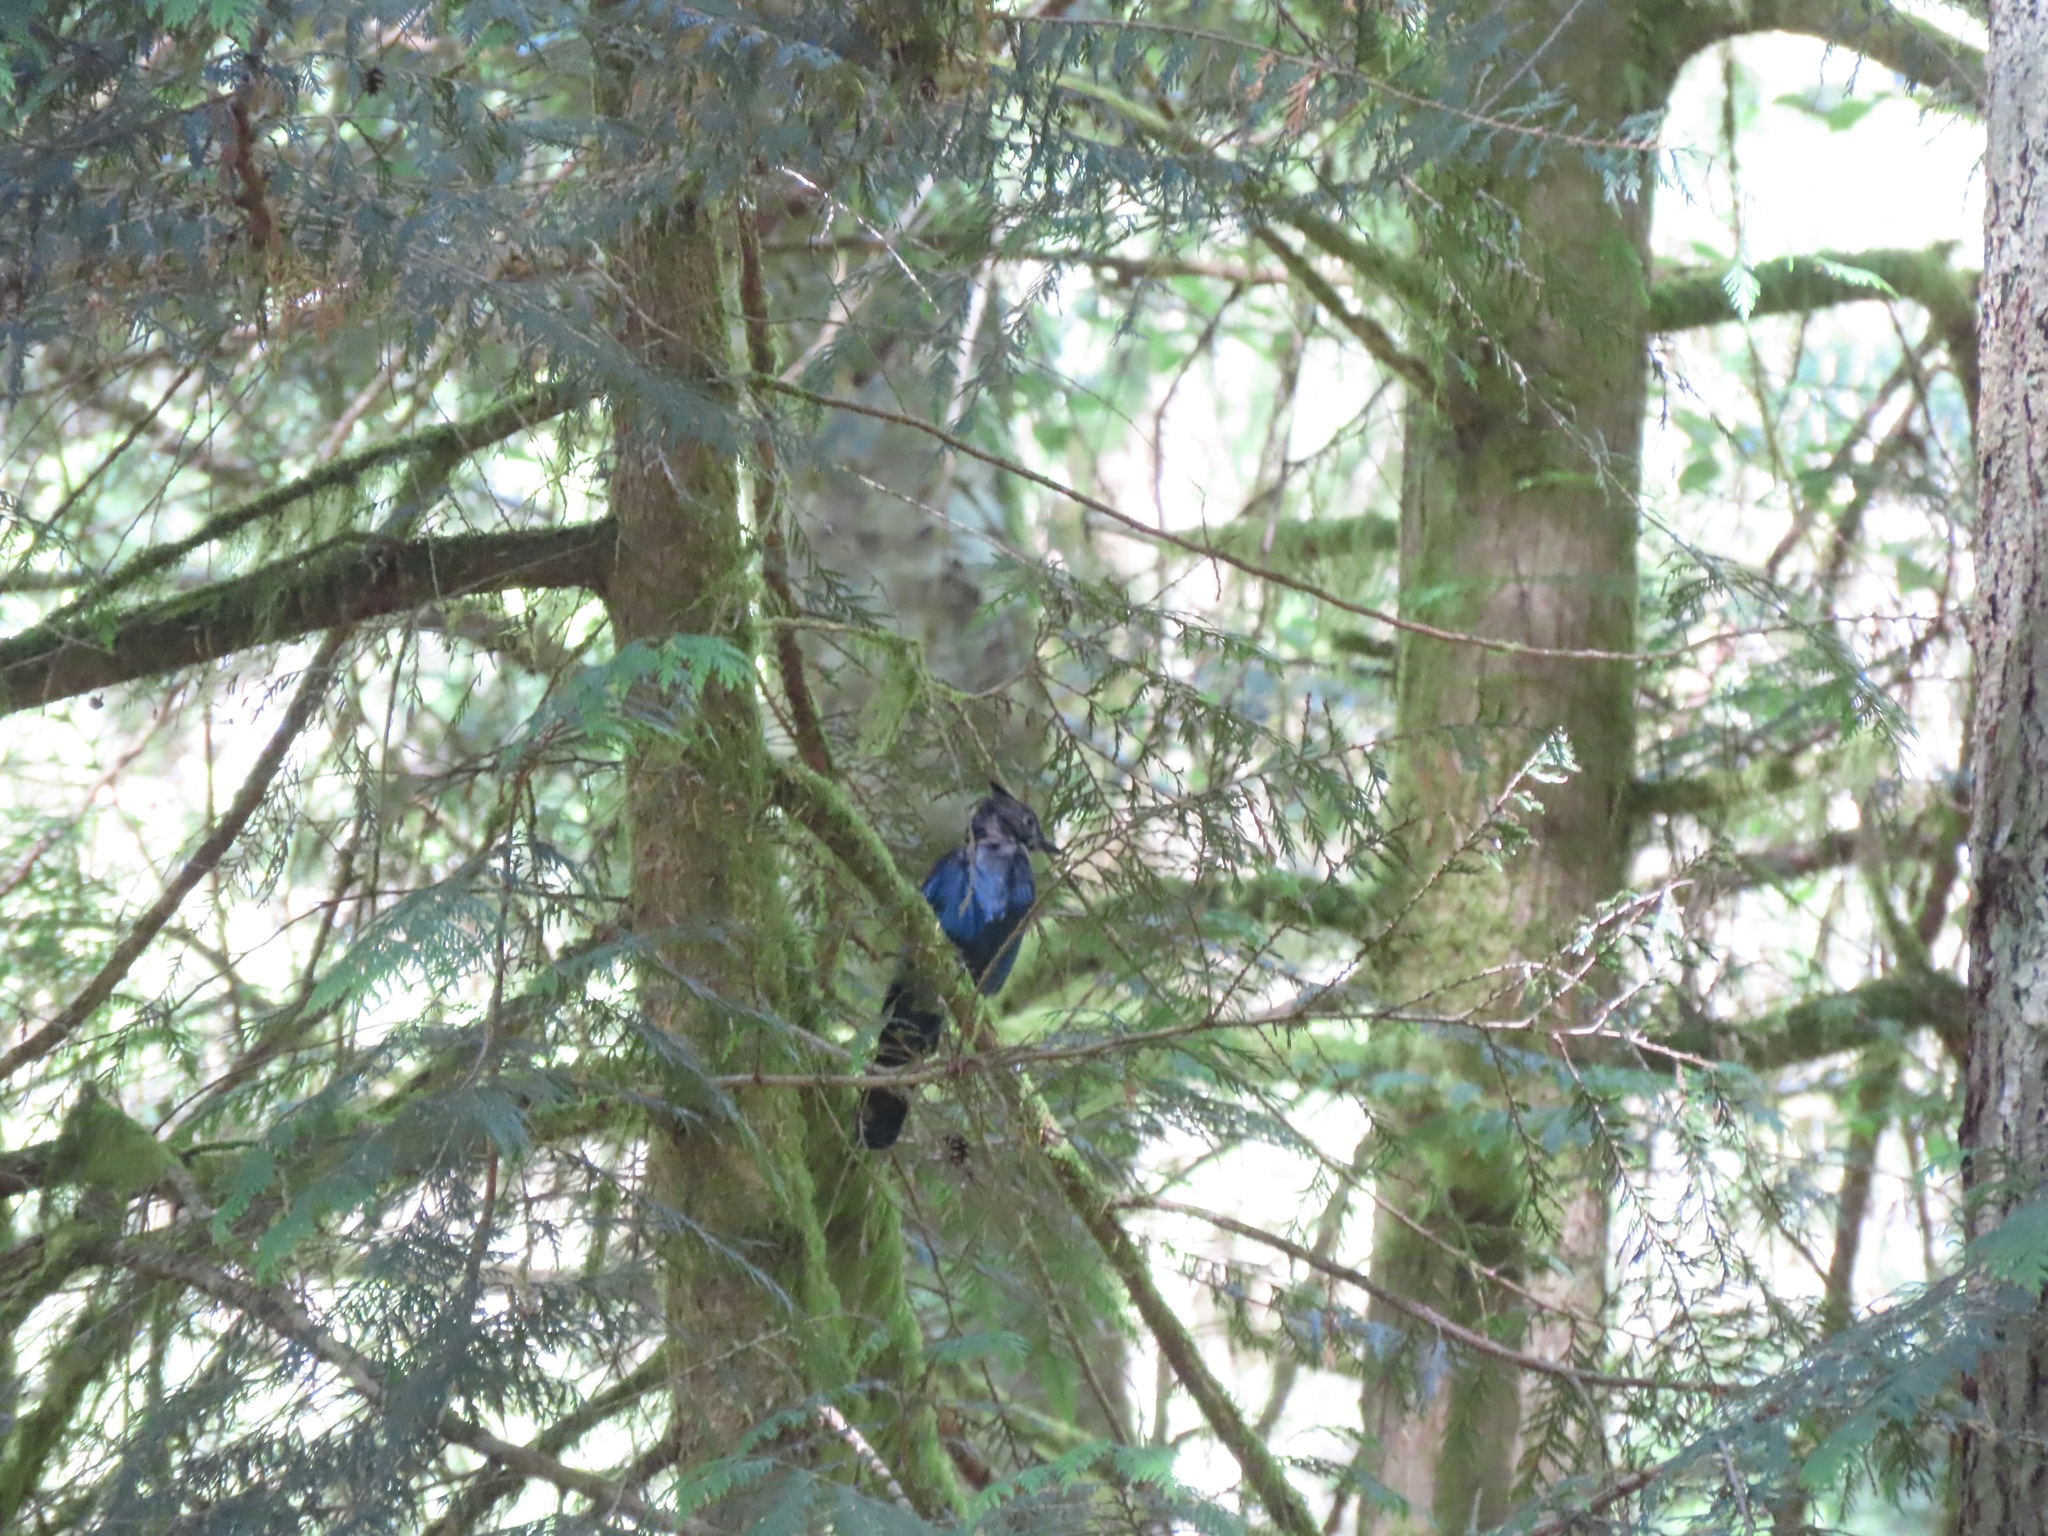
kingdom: Animalia
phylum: Chordata
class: Aves
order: Passeriformes
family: Corvidae
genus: Cyanocitta
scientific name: Cyanocitta stelleri
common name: Steller's jay
